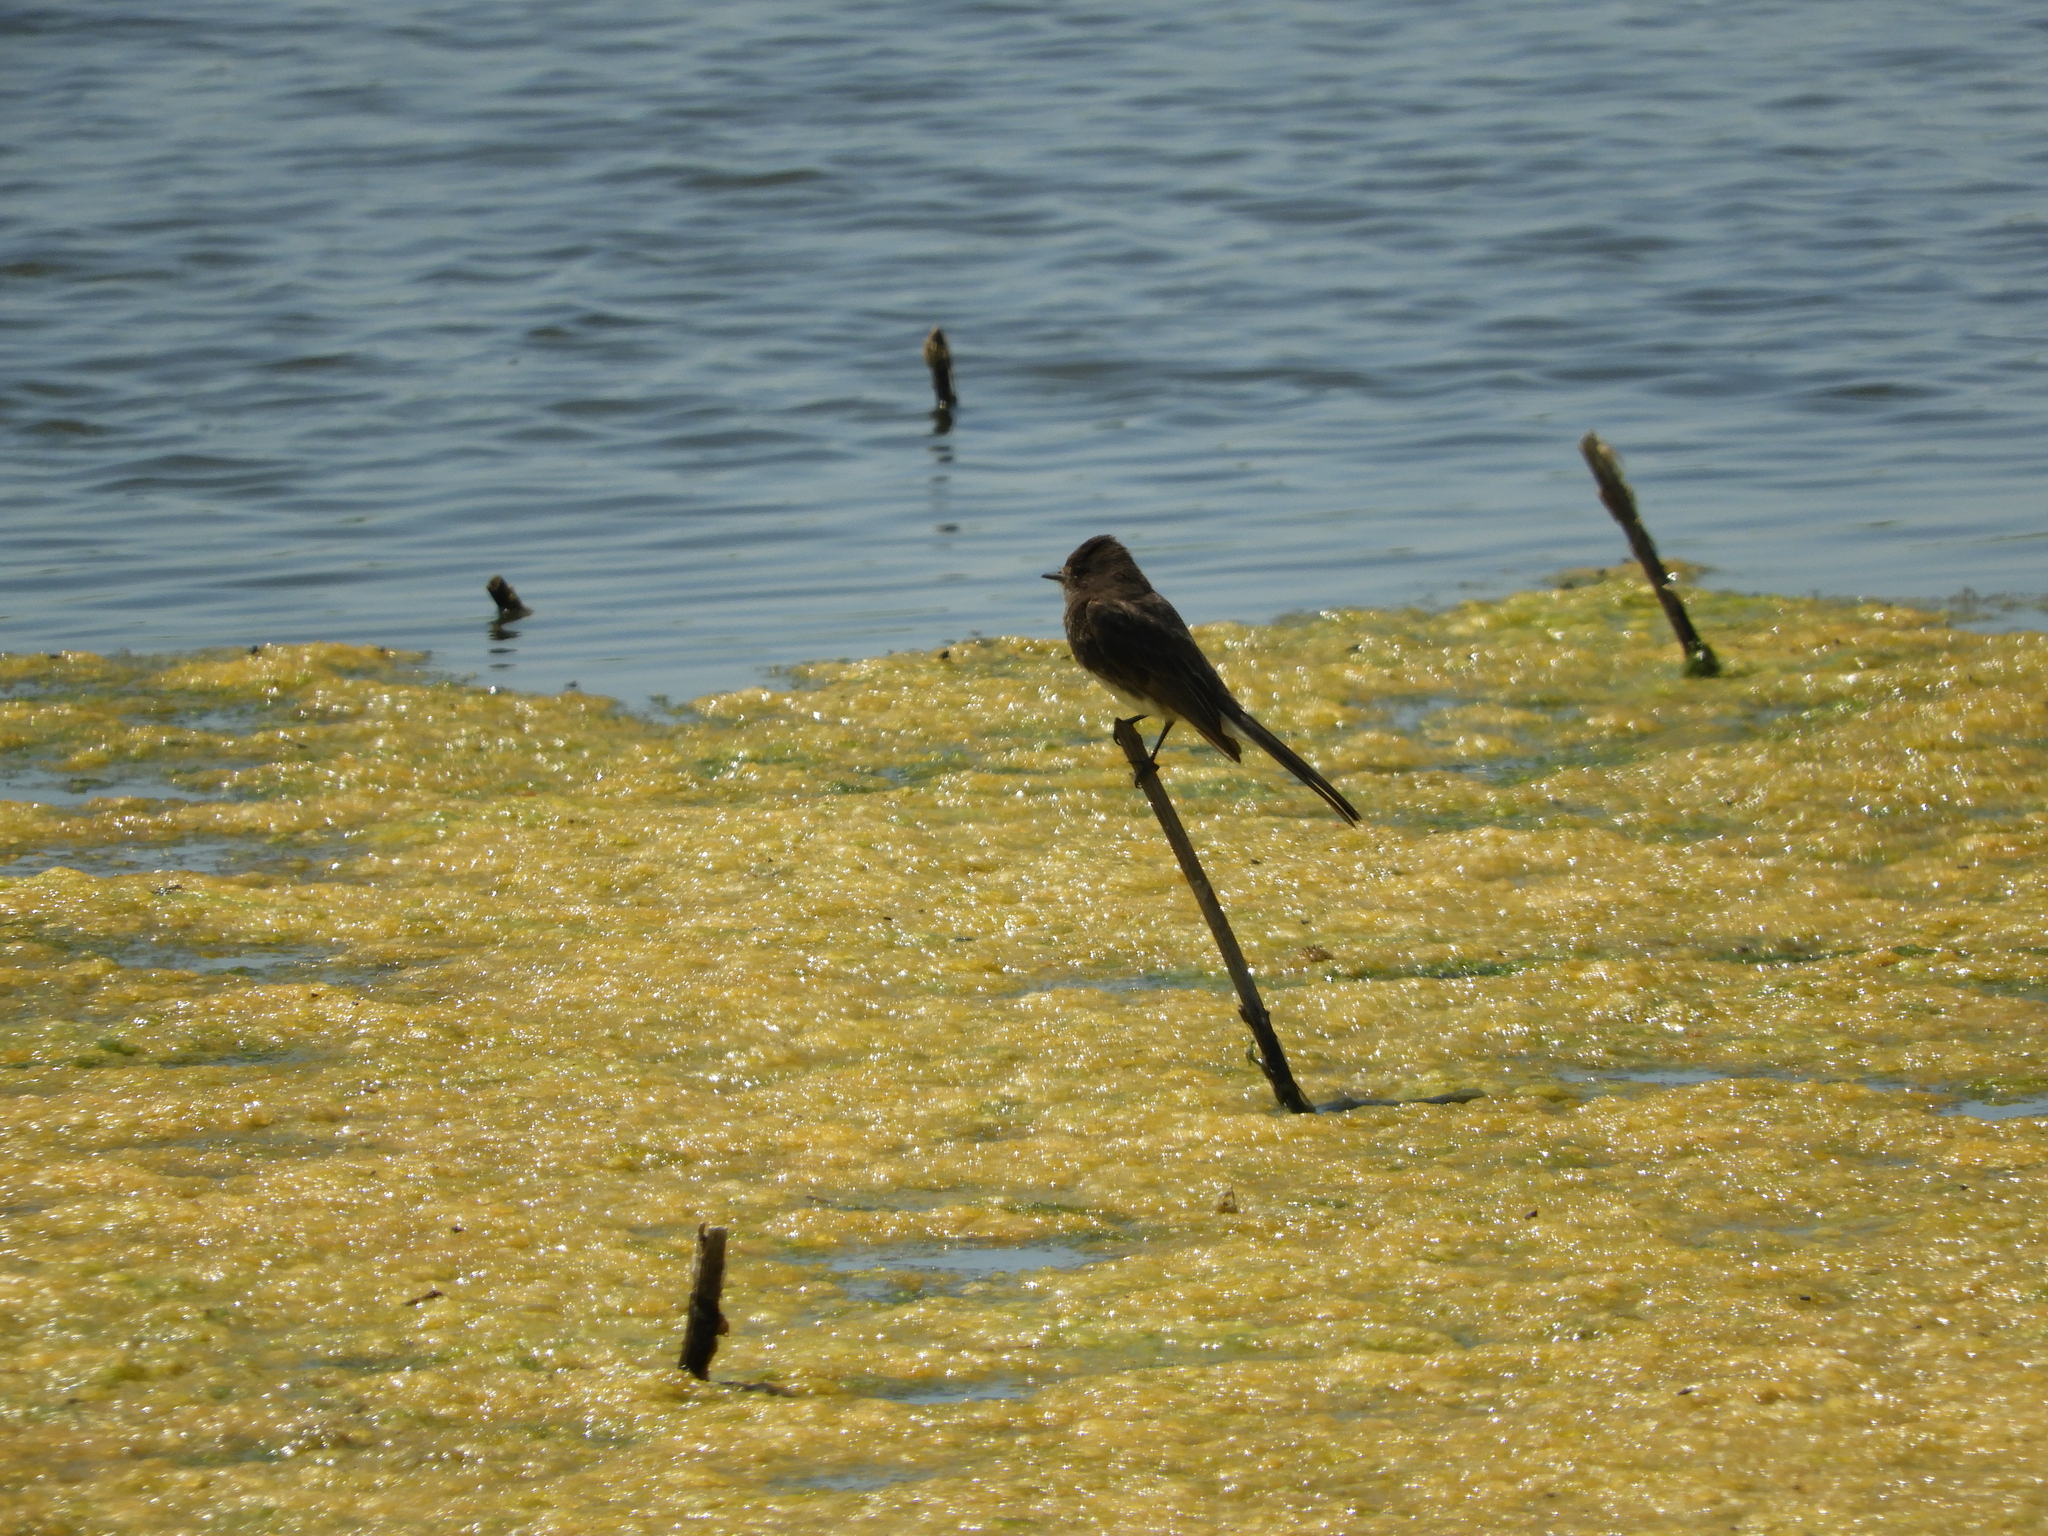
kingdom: Animalia
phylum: Chordata
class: Aves
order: Passeriformes
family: Tyrannidae
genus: Sayornis
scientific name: Sayornis nigricans
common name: Black phoebe
